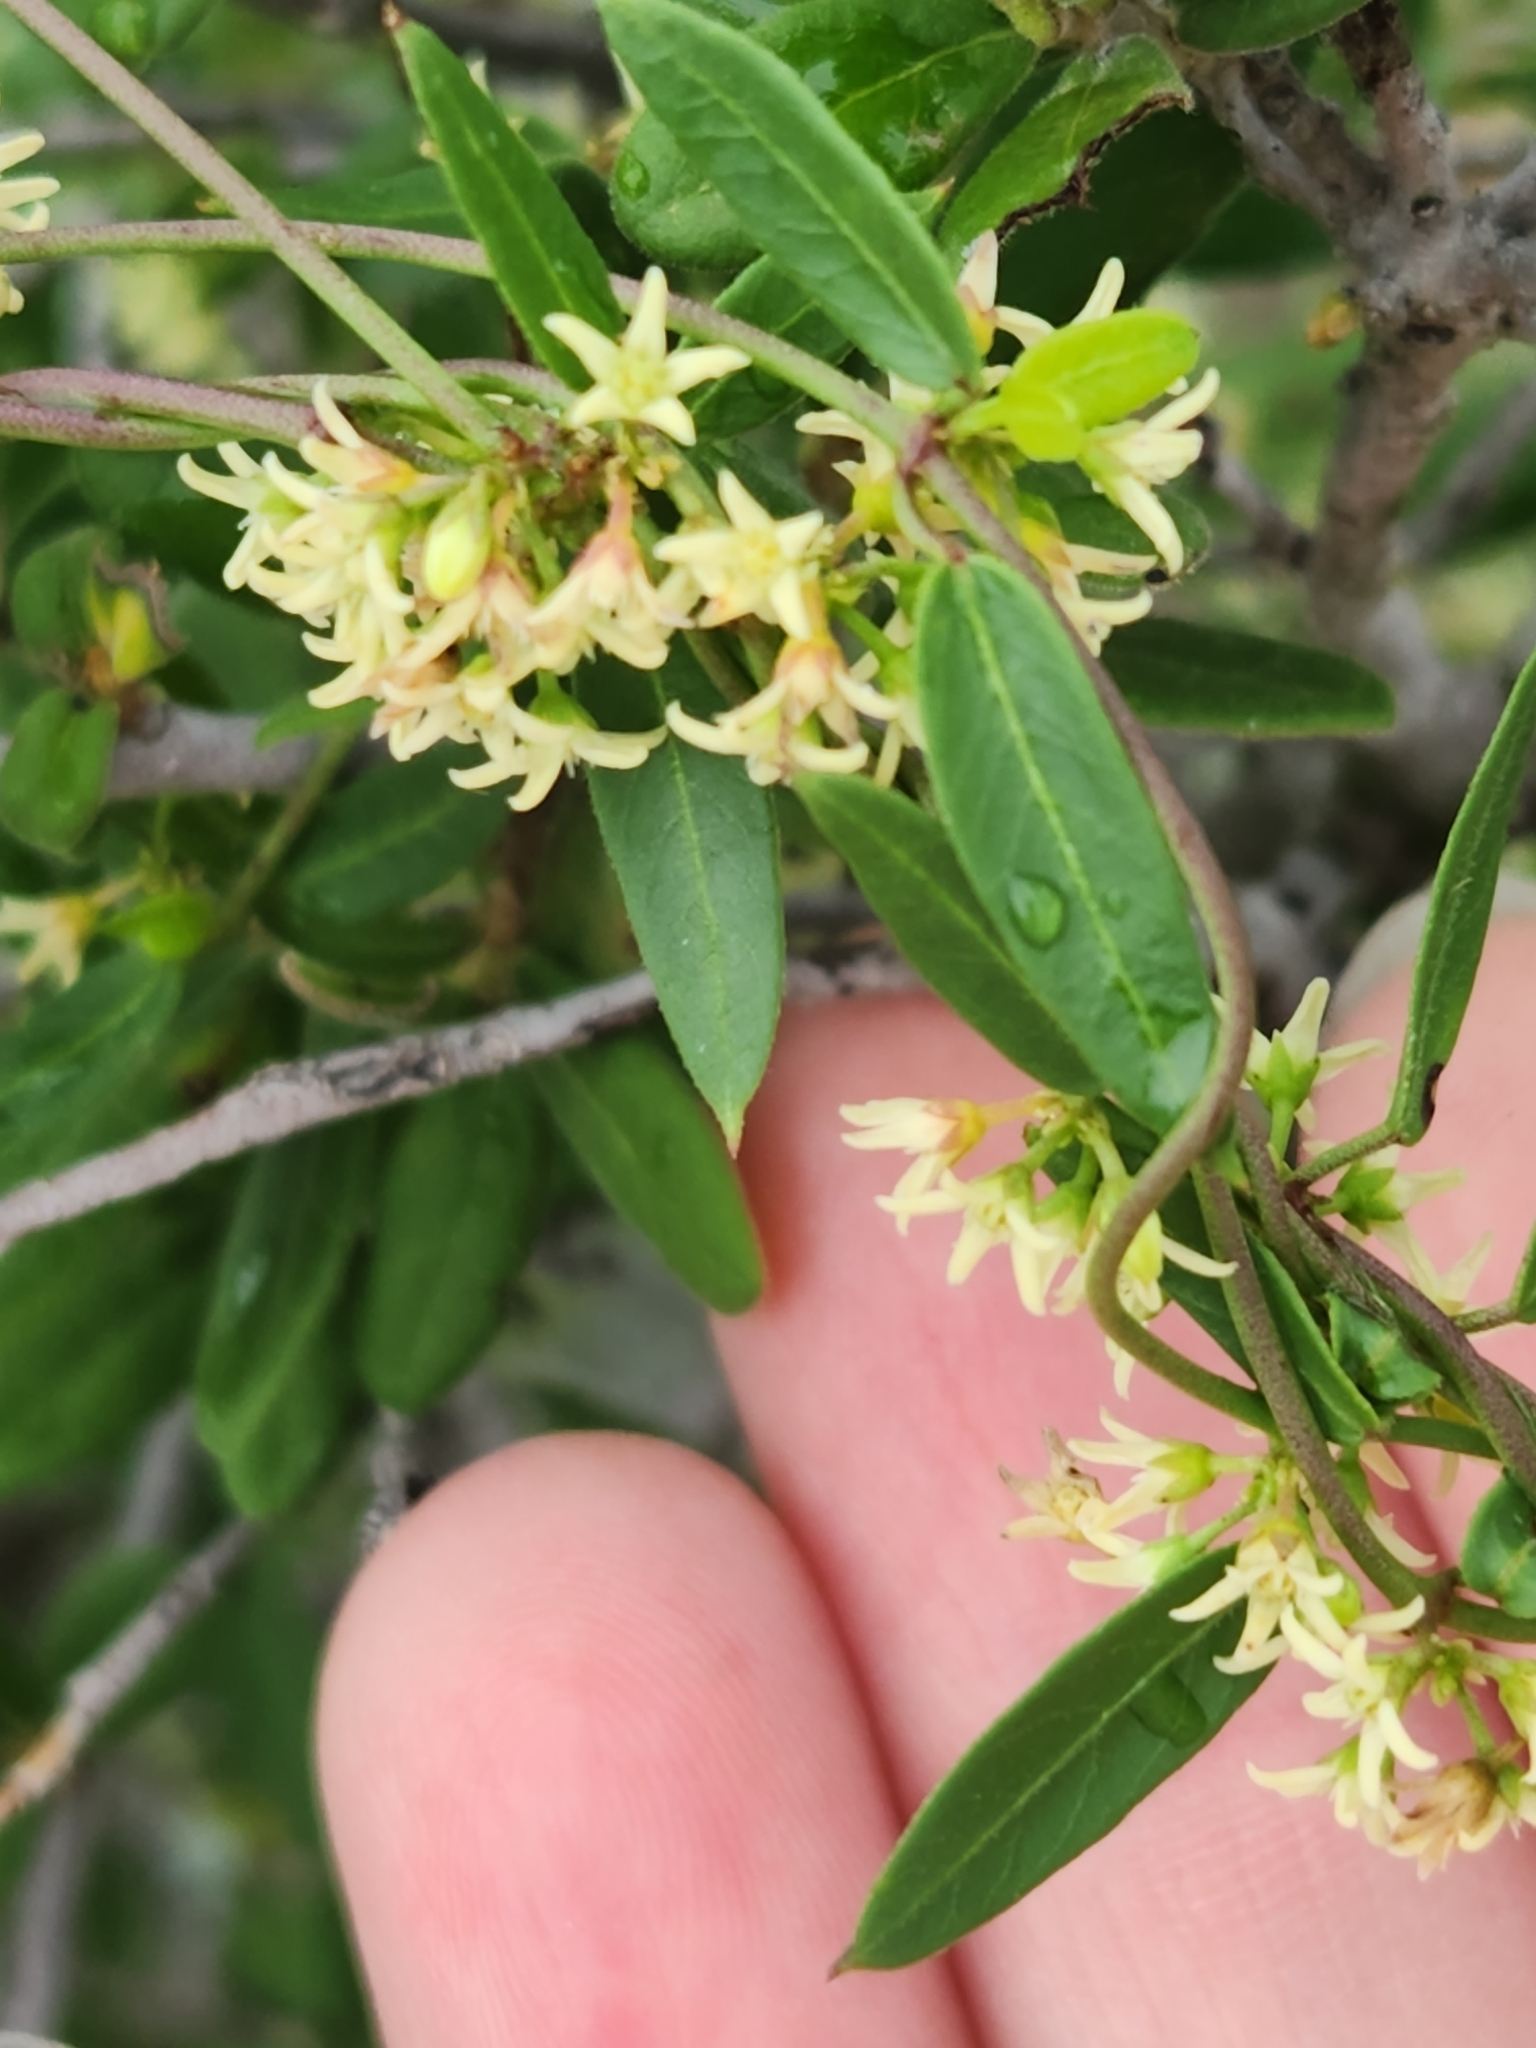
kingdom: Plantae
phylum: Tracheophyta
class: Magnoliopsida
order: Gentianales
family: Apocynaceae
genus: Metastelma
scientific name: Metastelma palmeri
